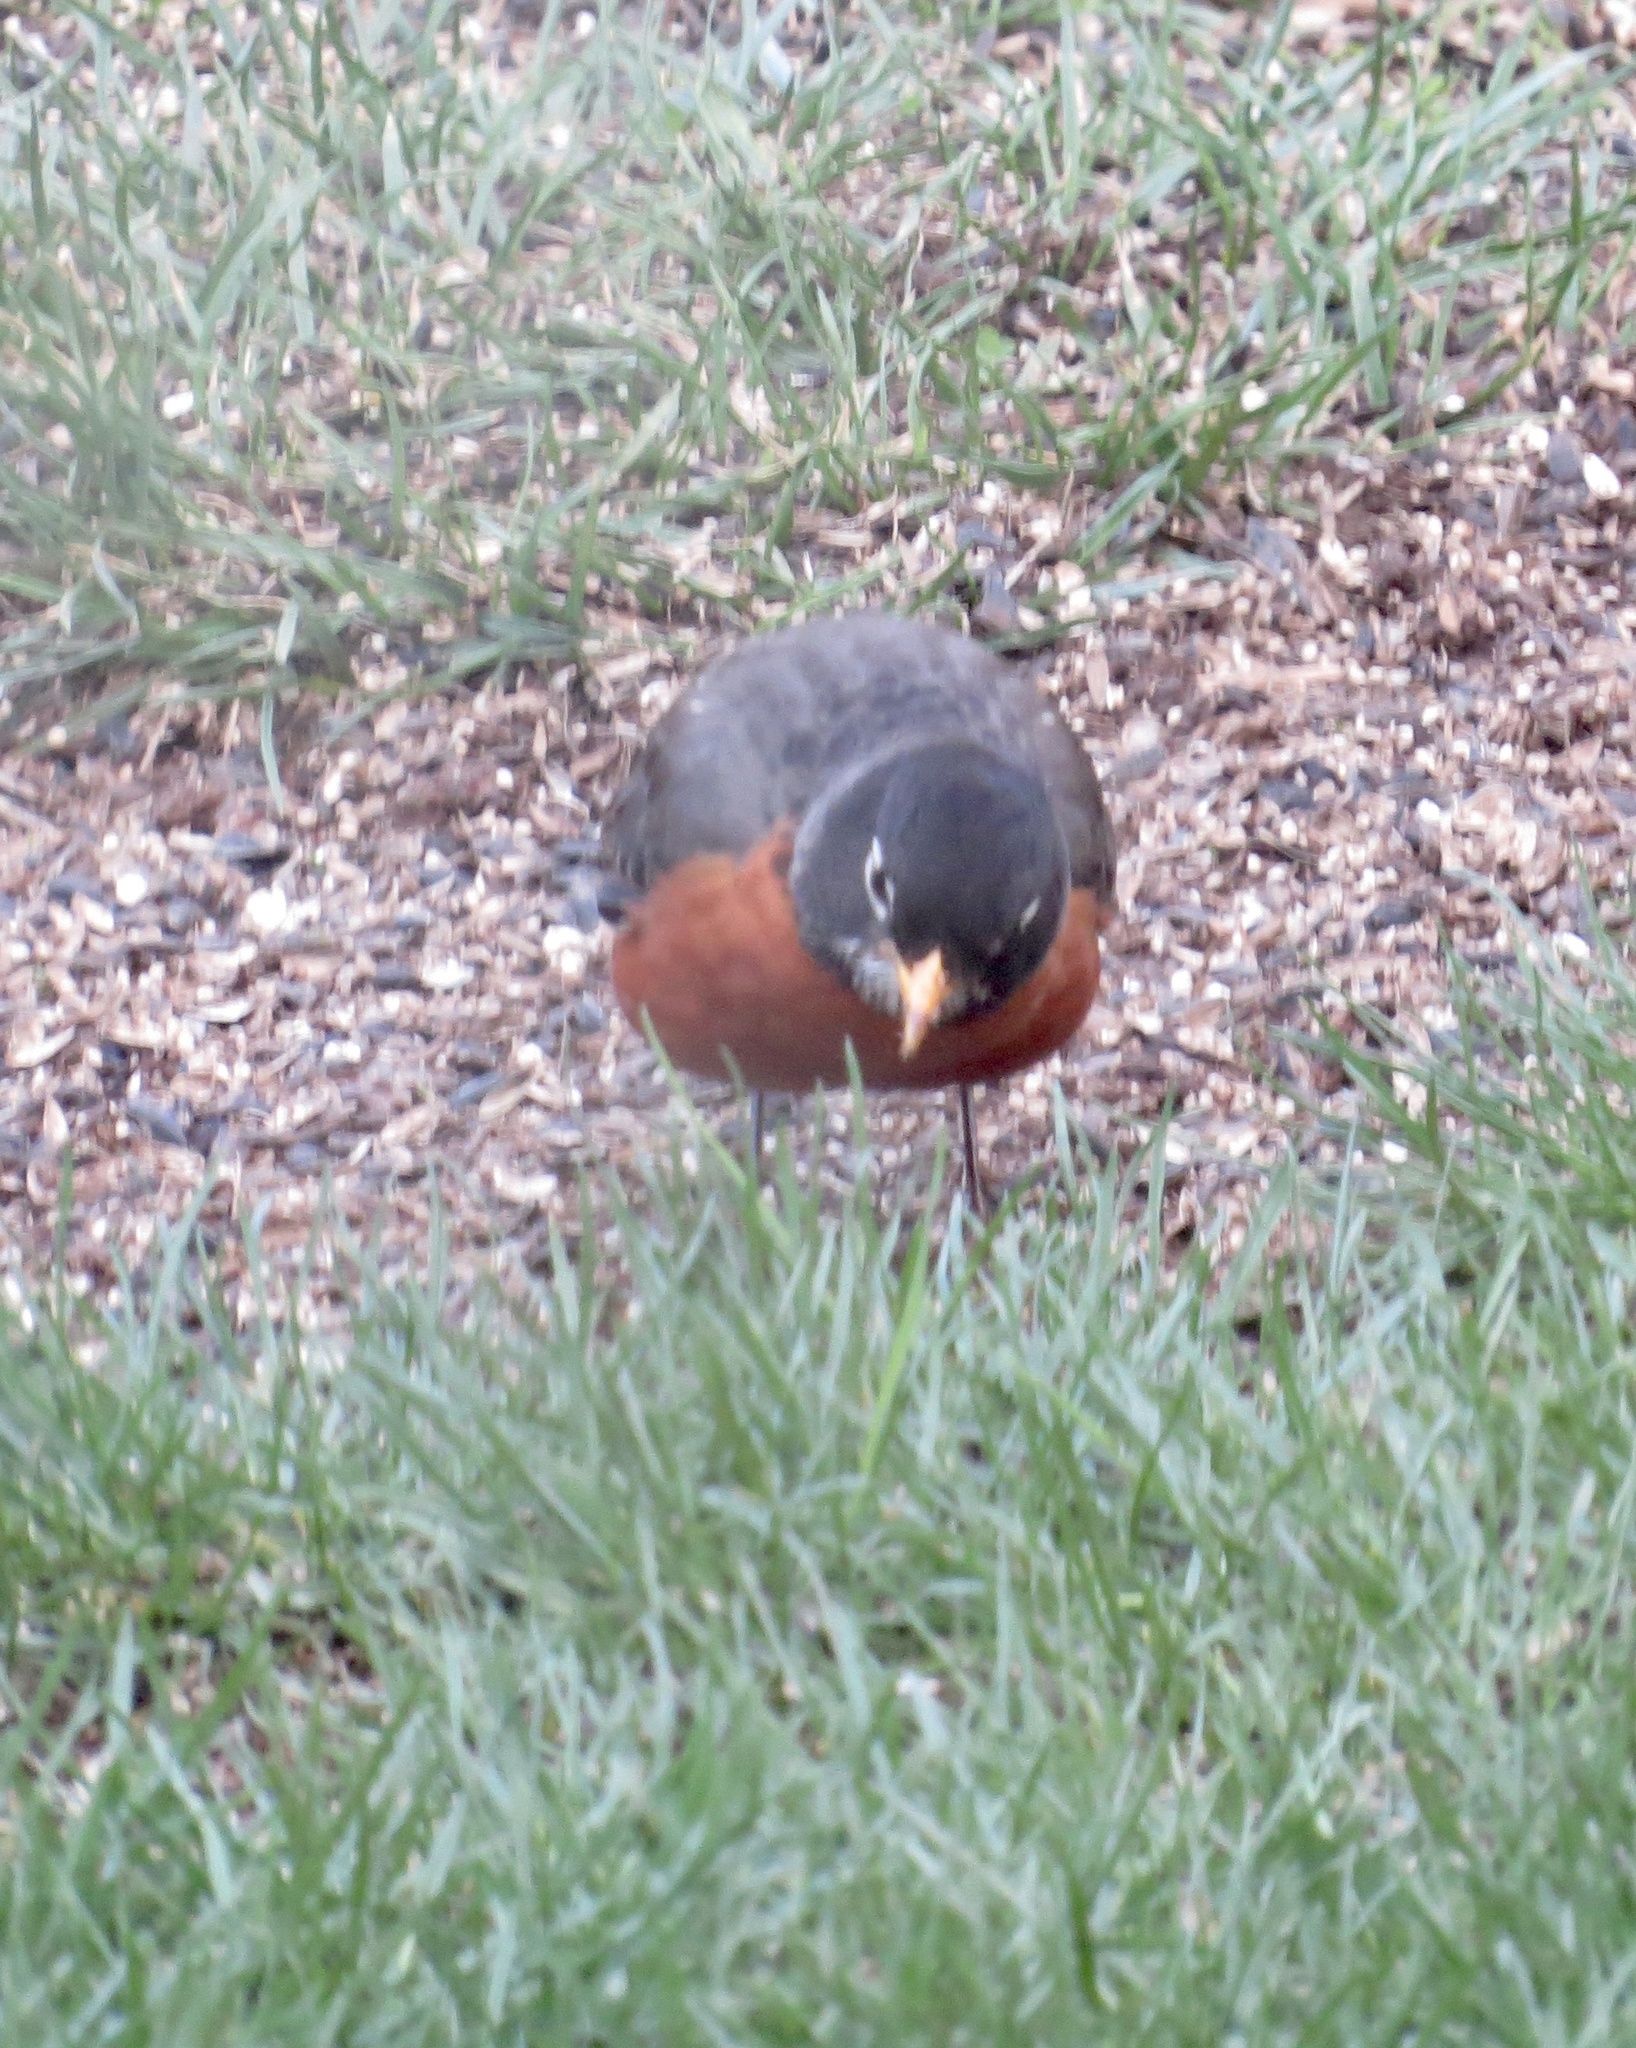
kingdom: Animalia
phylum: Chordata
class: Aves
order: Passeriformes
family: Turdidae
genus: Turdus
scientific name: Turdus migratorius
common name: American robin
